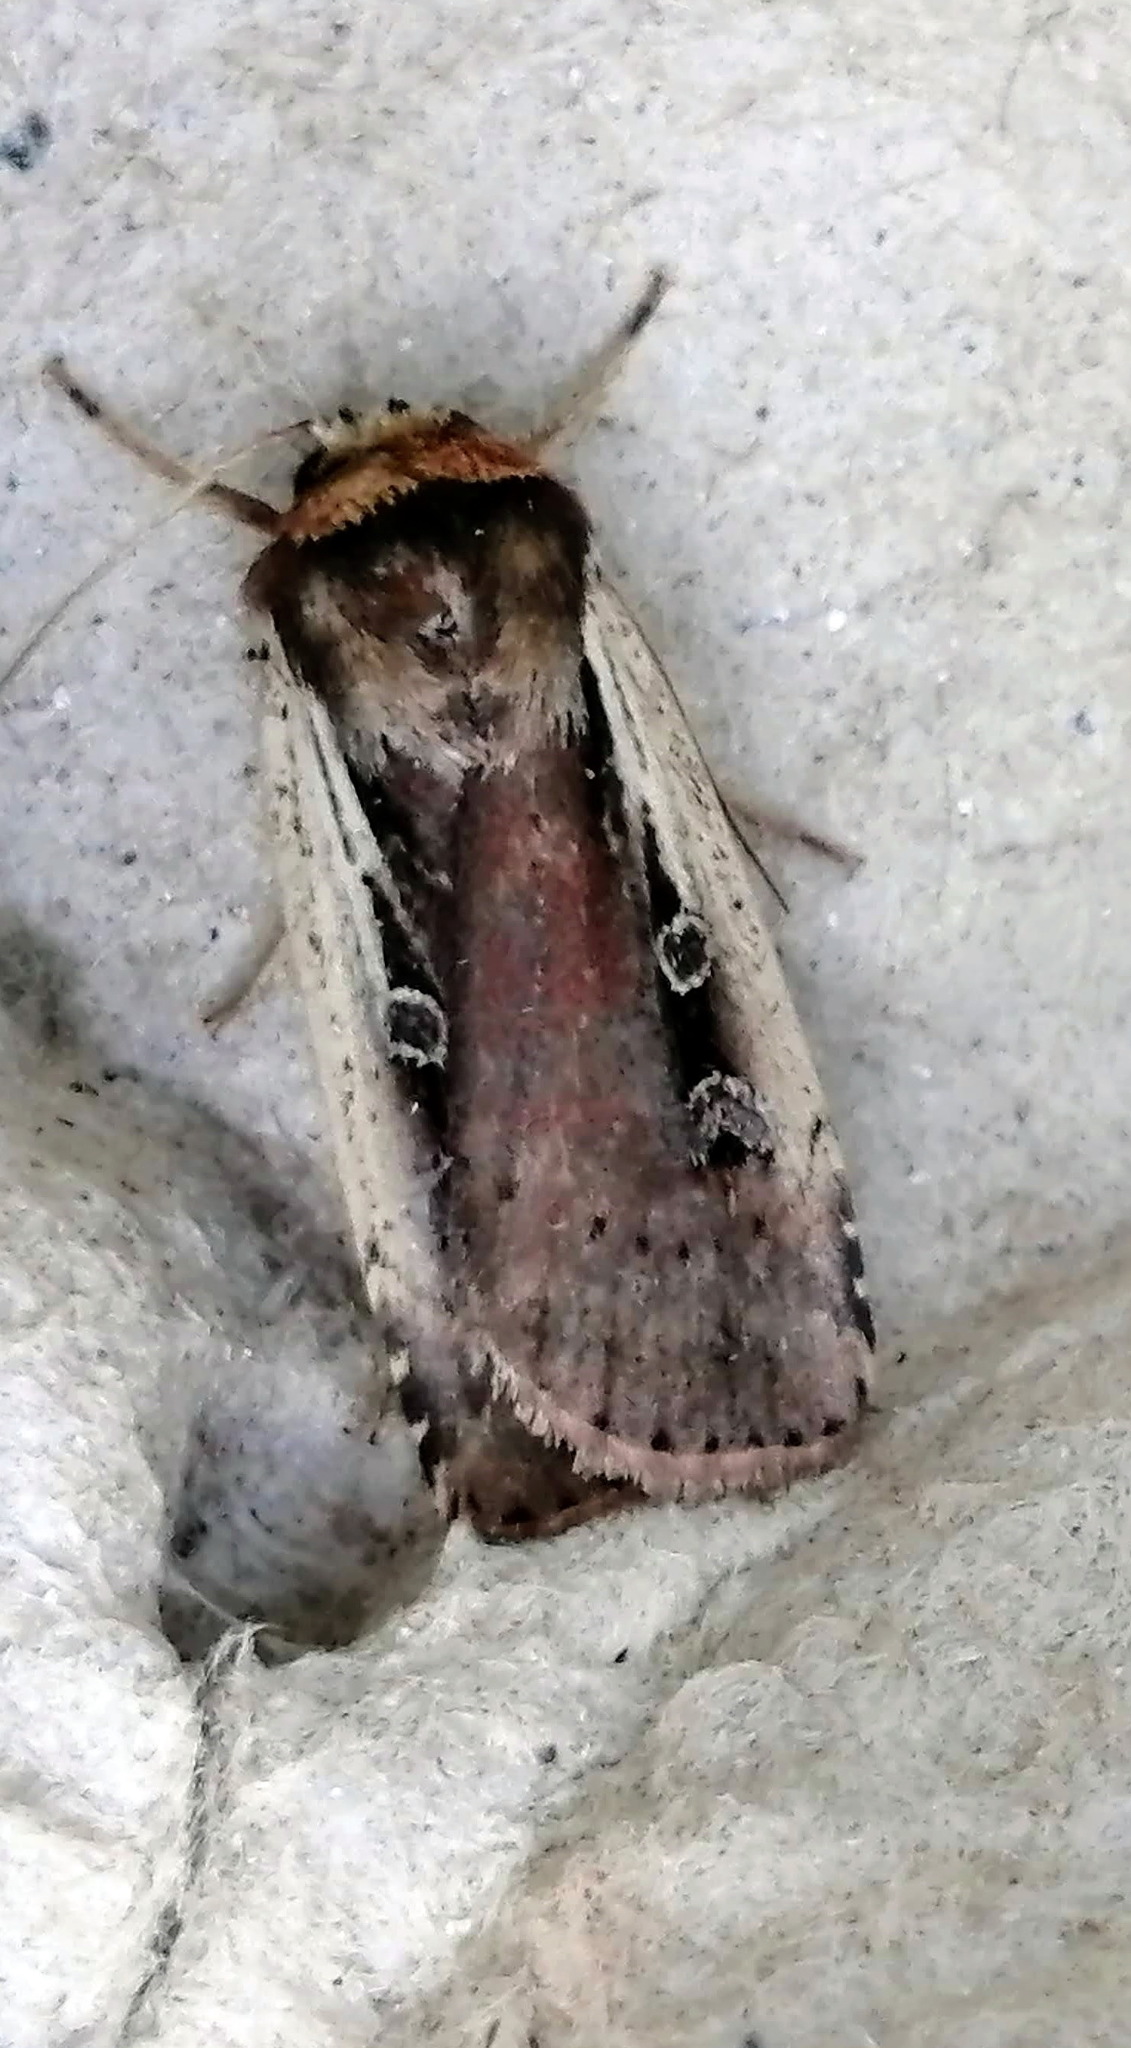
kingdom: Animalia
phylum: Arthropoda
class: Insecta
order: Lepidoptera
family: Noctuidae
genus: Ochropleura
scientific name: Ochropleura implecta
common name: Flame-shouldered dart
